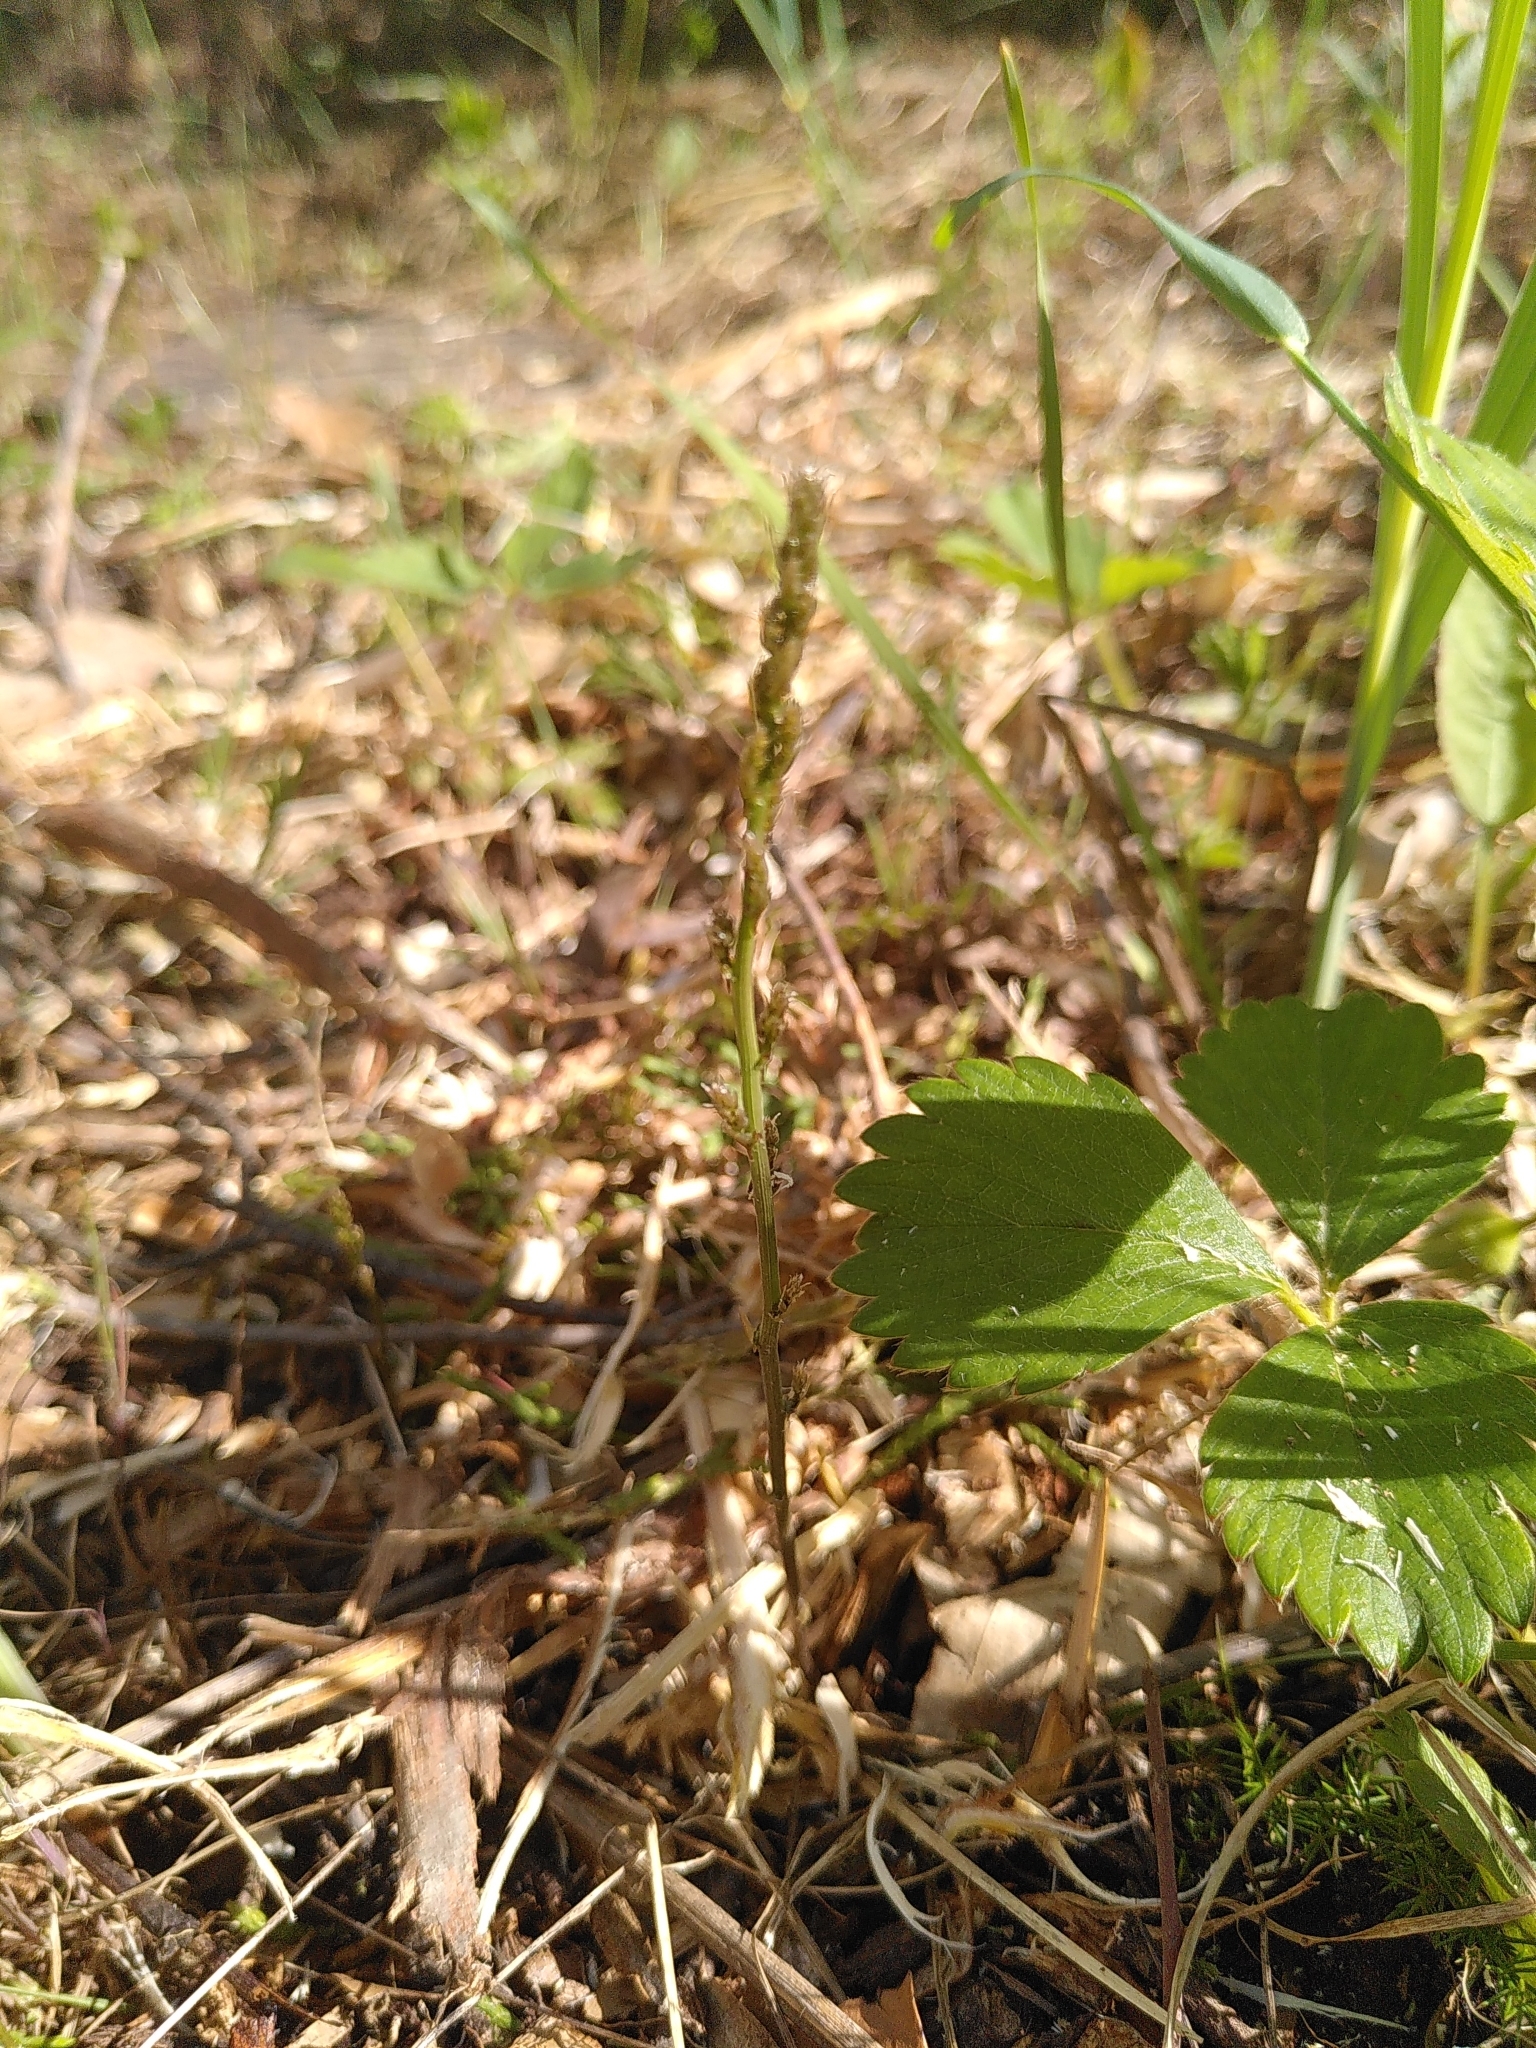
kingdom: Plantae
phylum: Tracheophyta
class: Liliopsida
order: Asparagales
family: Asparagaceae
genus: Asparagus
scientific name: Asparagus acutifolius
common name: Wild asparagus
